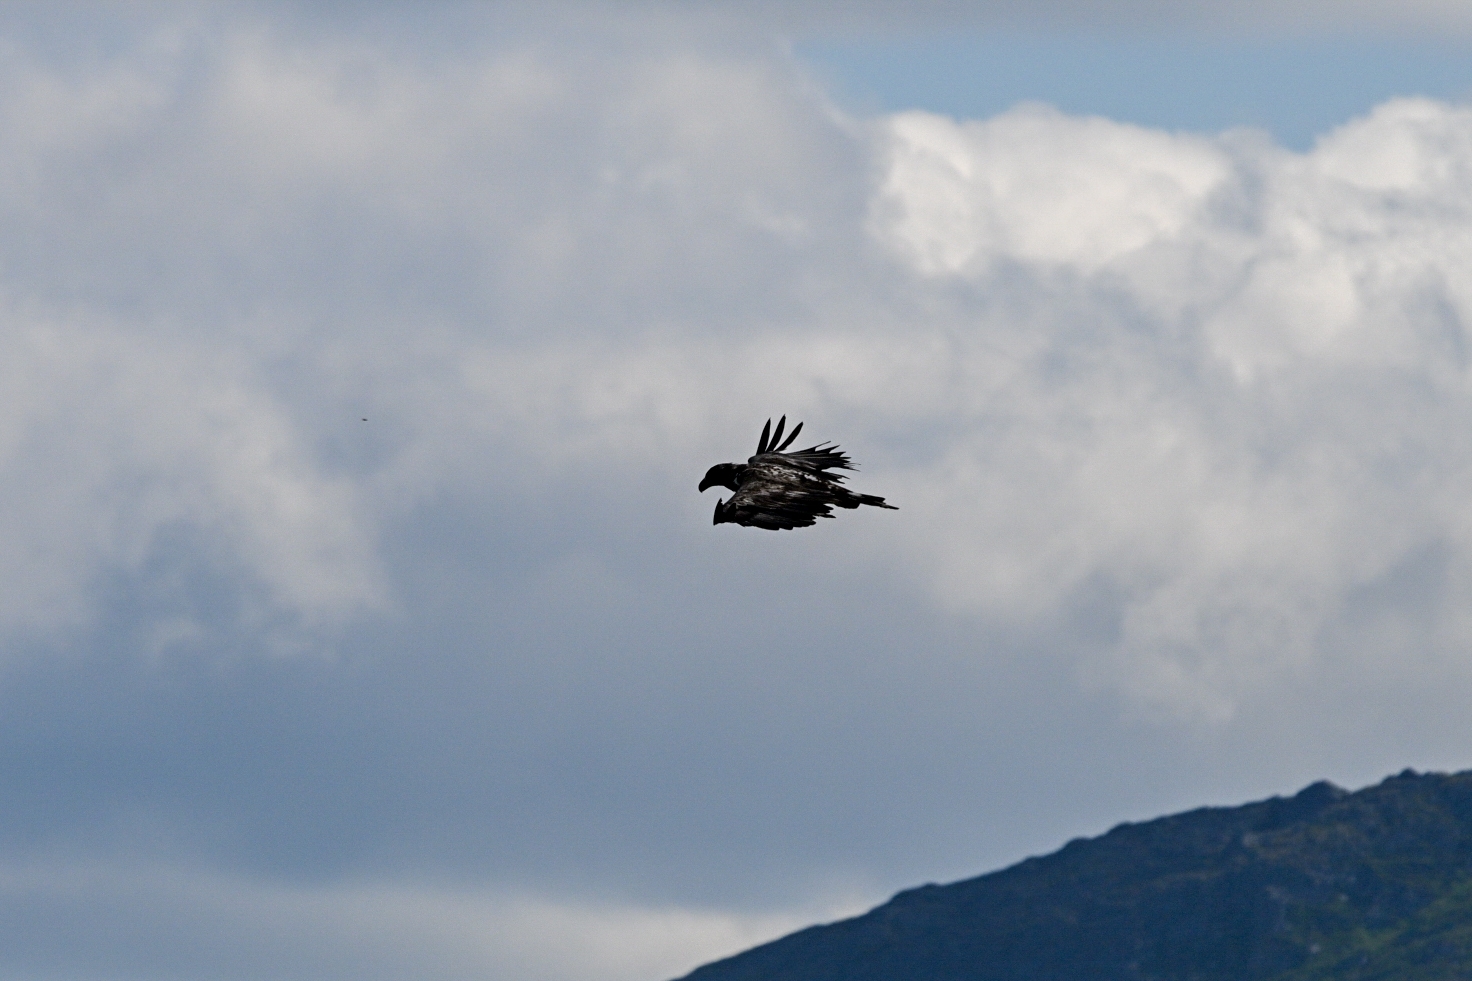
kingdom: Animalia
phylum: Chordata
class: Aves
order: Accipitriformes
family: Accipitridae
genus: Haliaeetus
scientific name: Haliaeetus albicilla
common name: White-tailed eagle
